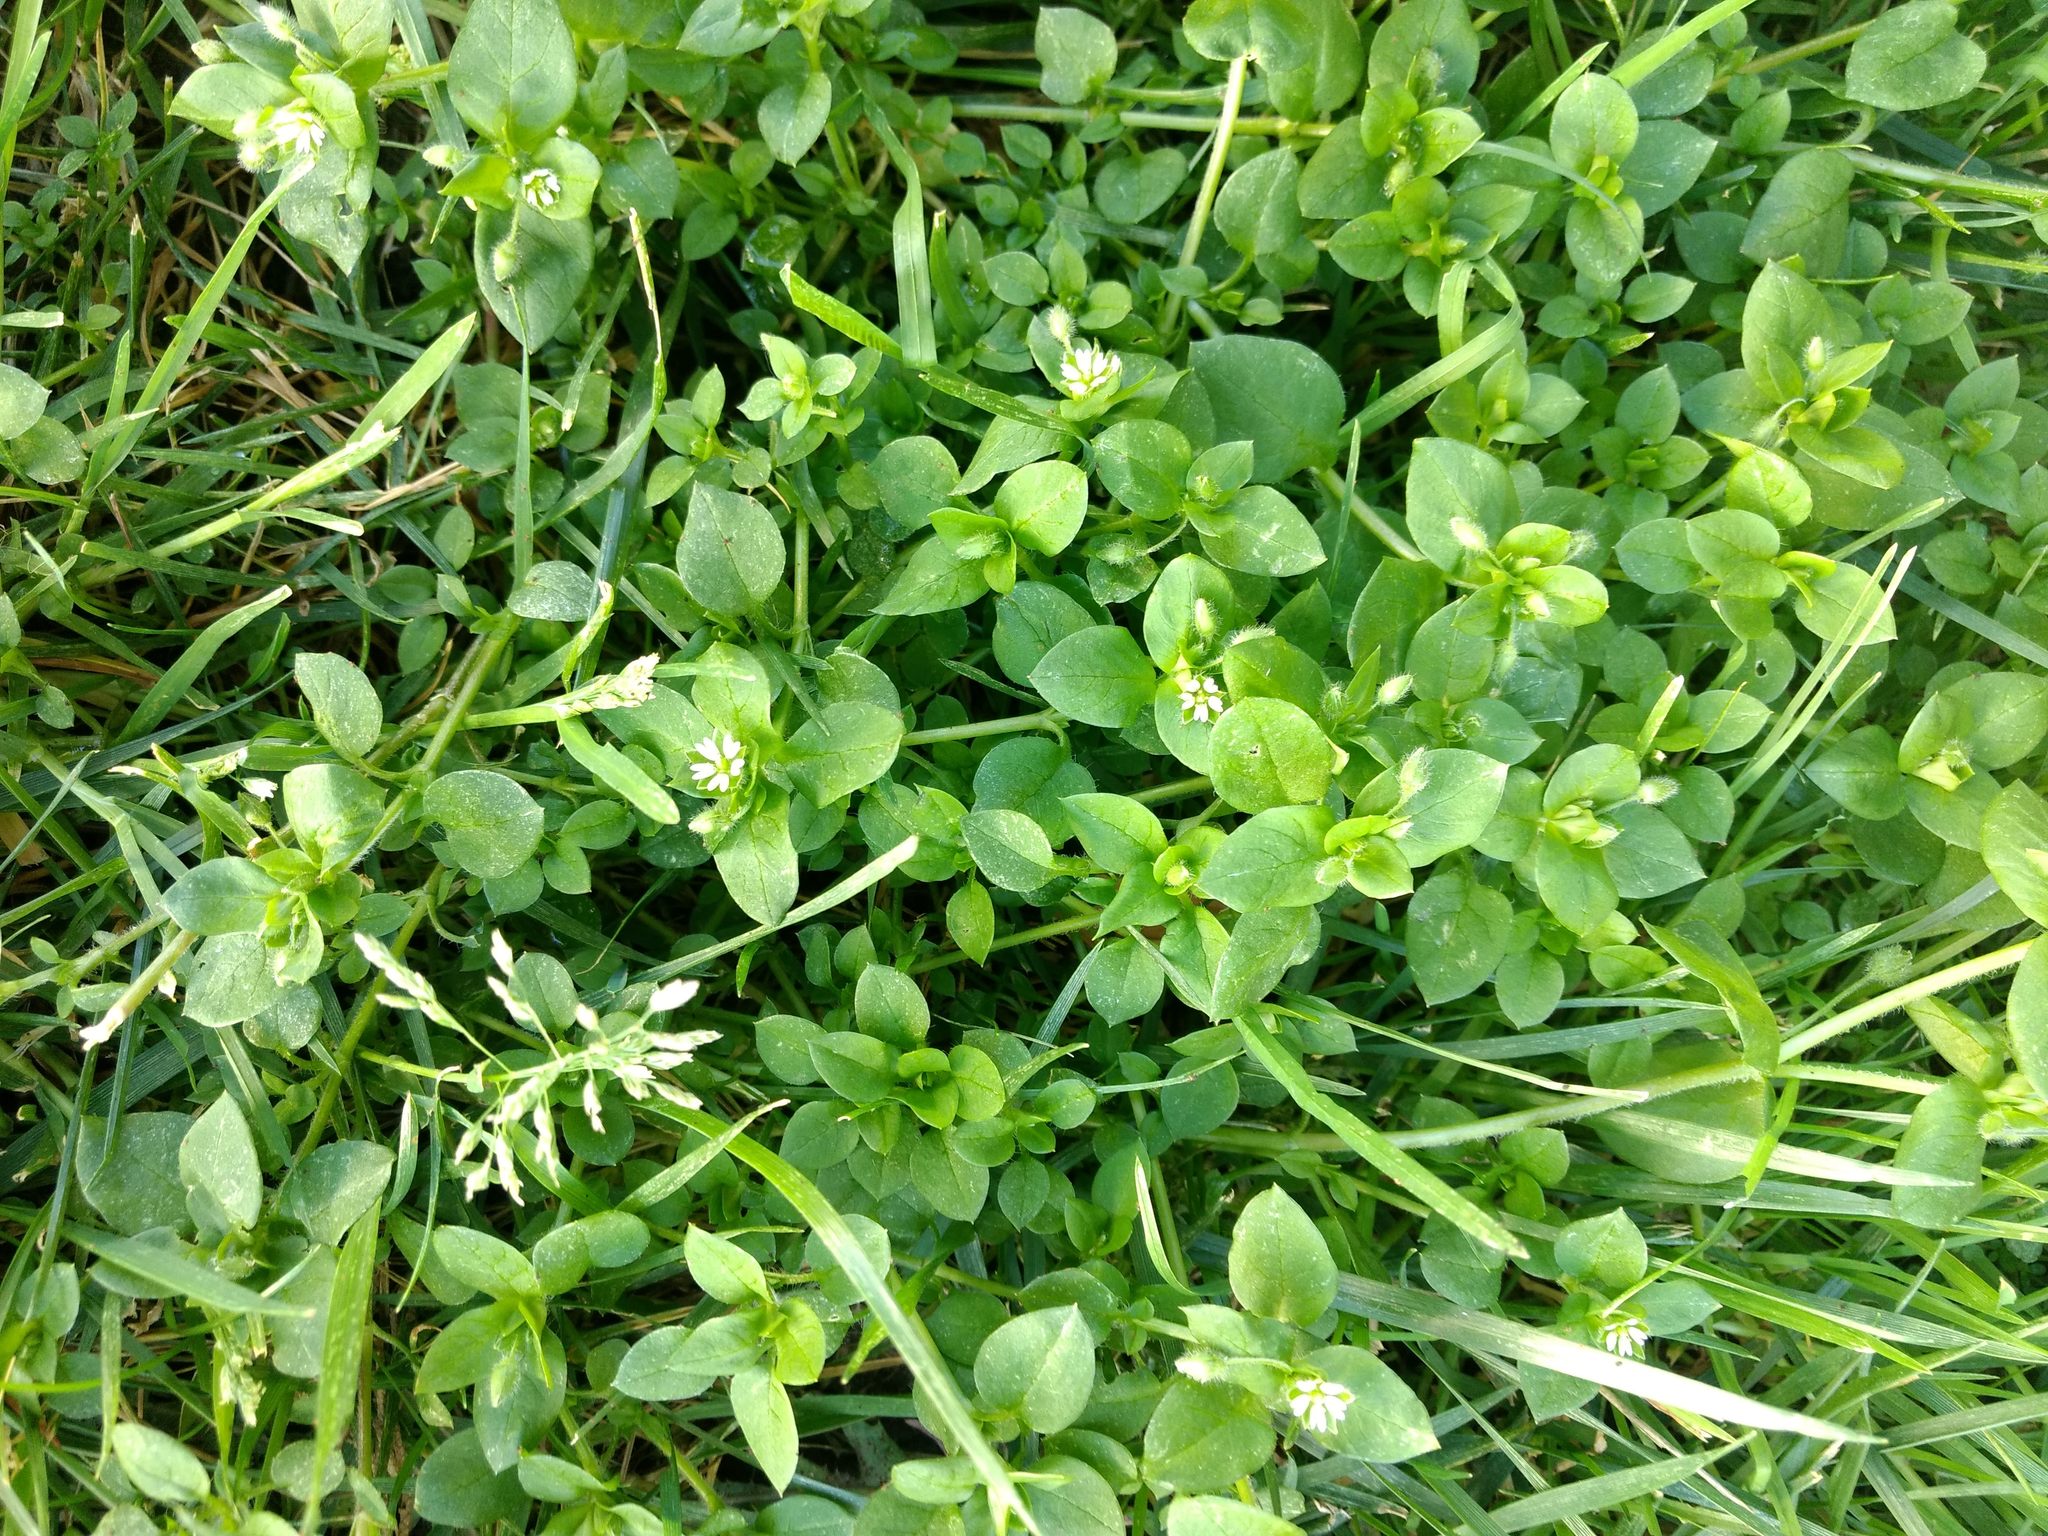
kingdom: Plantae
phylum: Tracheophyta
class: Magnoliopsida
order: Caryophyllales
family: Caryophyllaceae
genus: Stellaria
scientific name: Stellaria media
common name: Common chickweed
